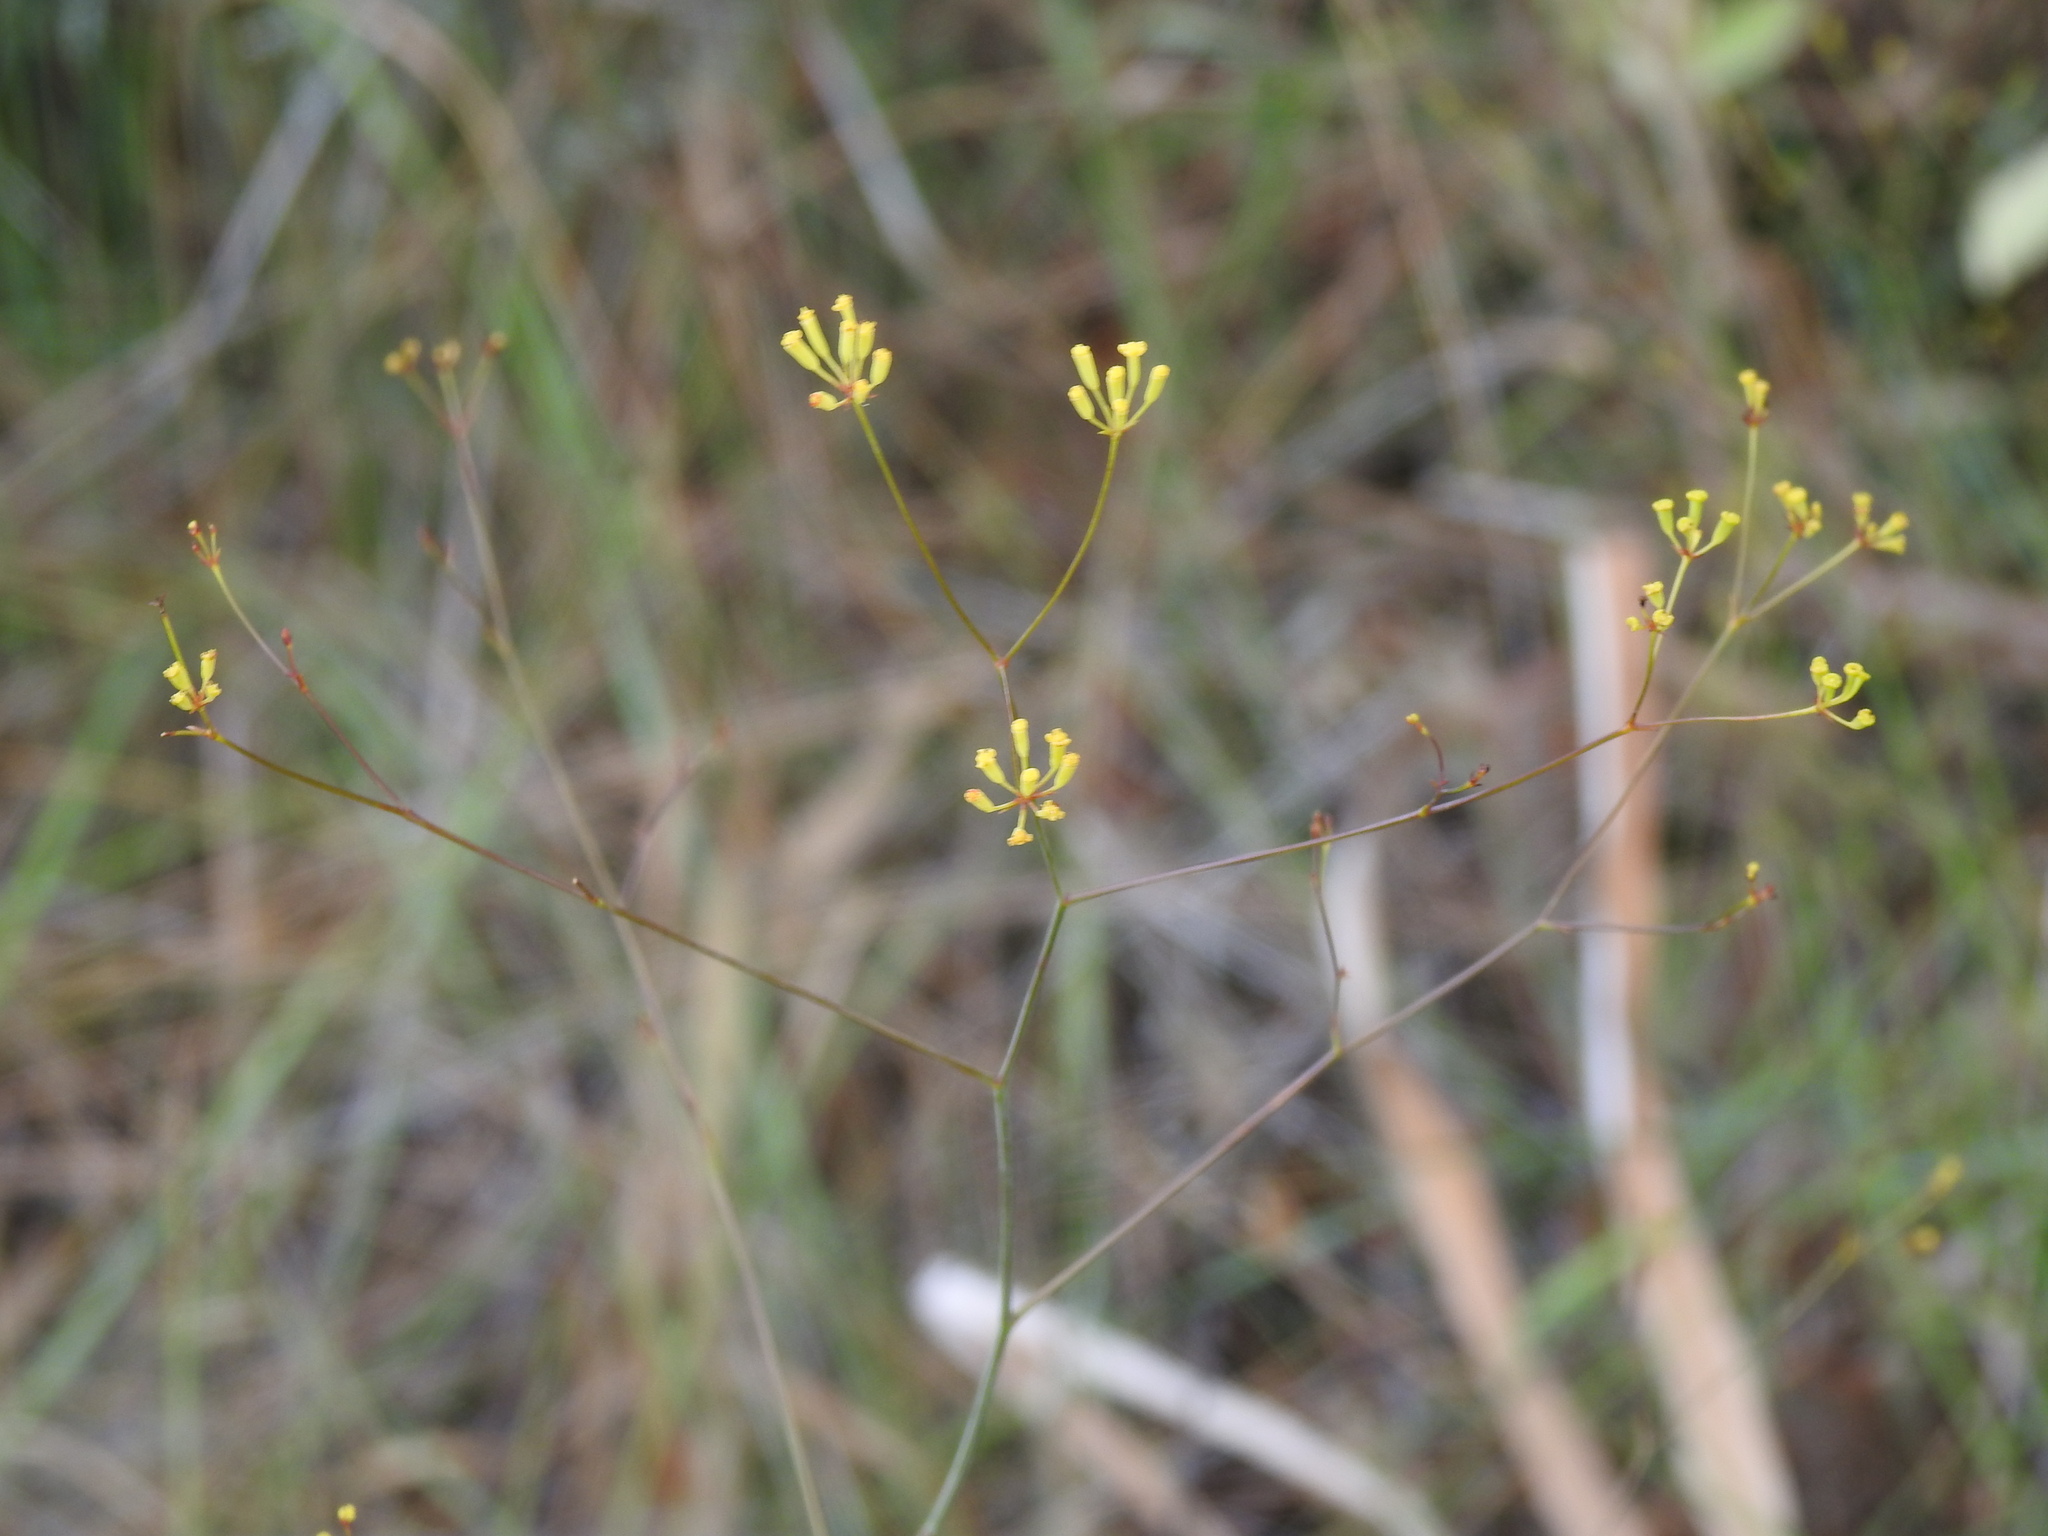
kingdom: Plantae
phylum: Tracheophyta
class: Magnoliopsida
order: Apiales
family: Apiaceae
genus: Bupleurum
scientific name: Bupleurum rigidum
